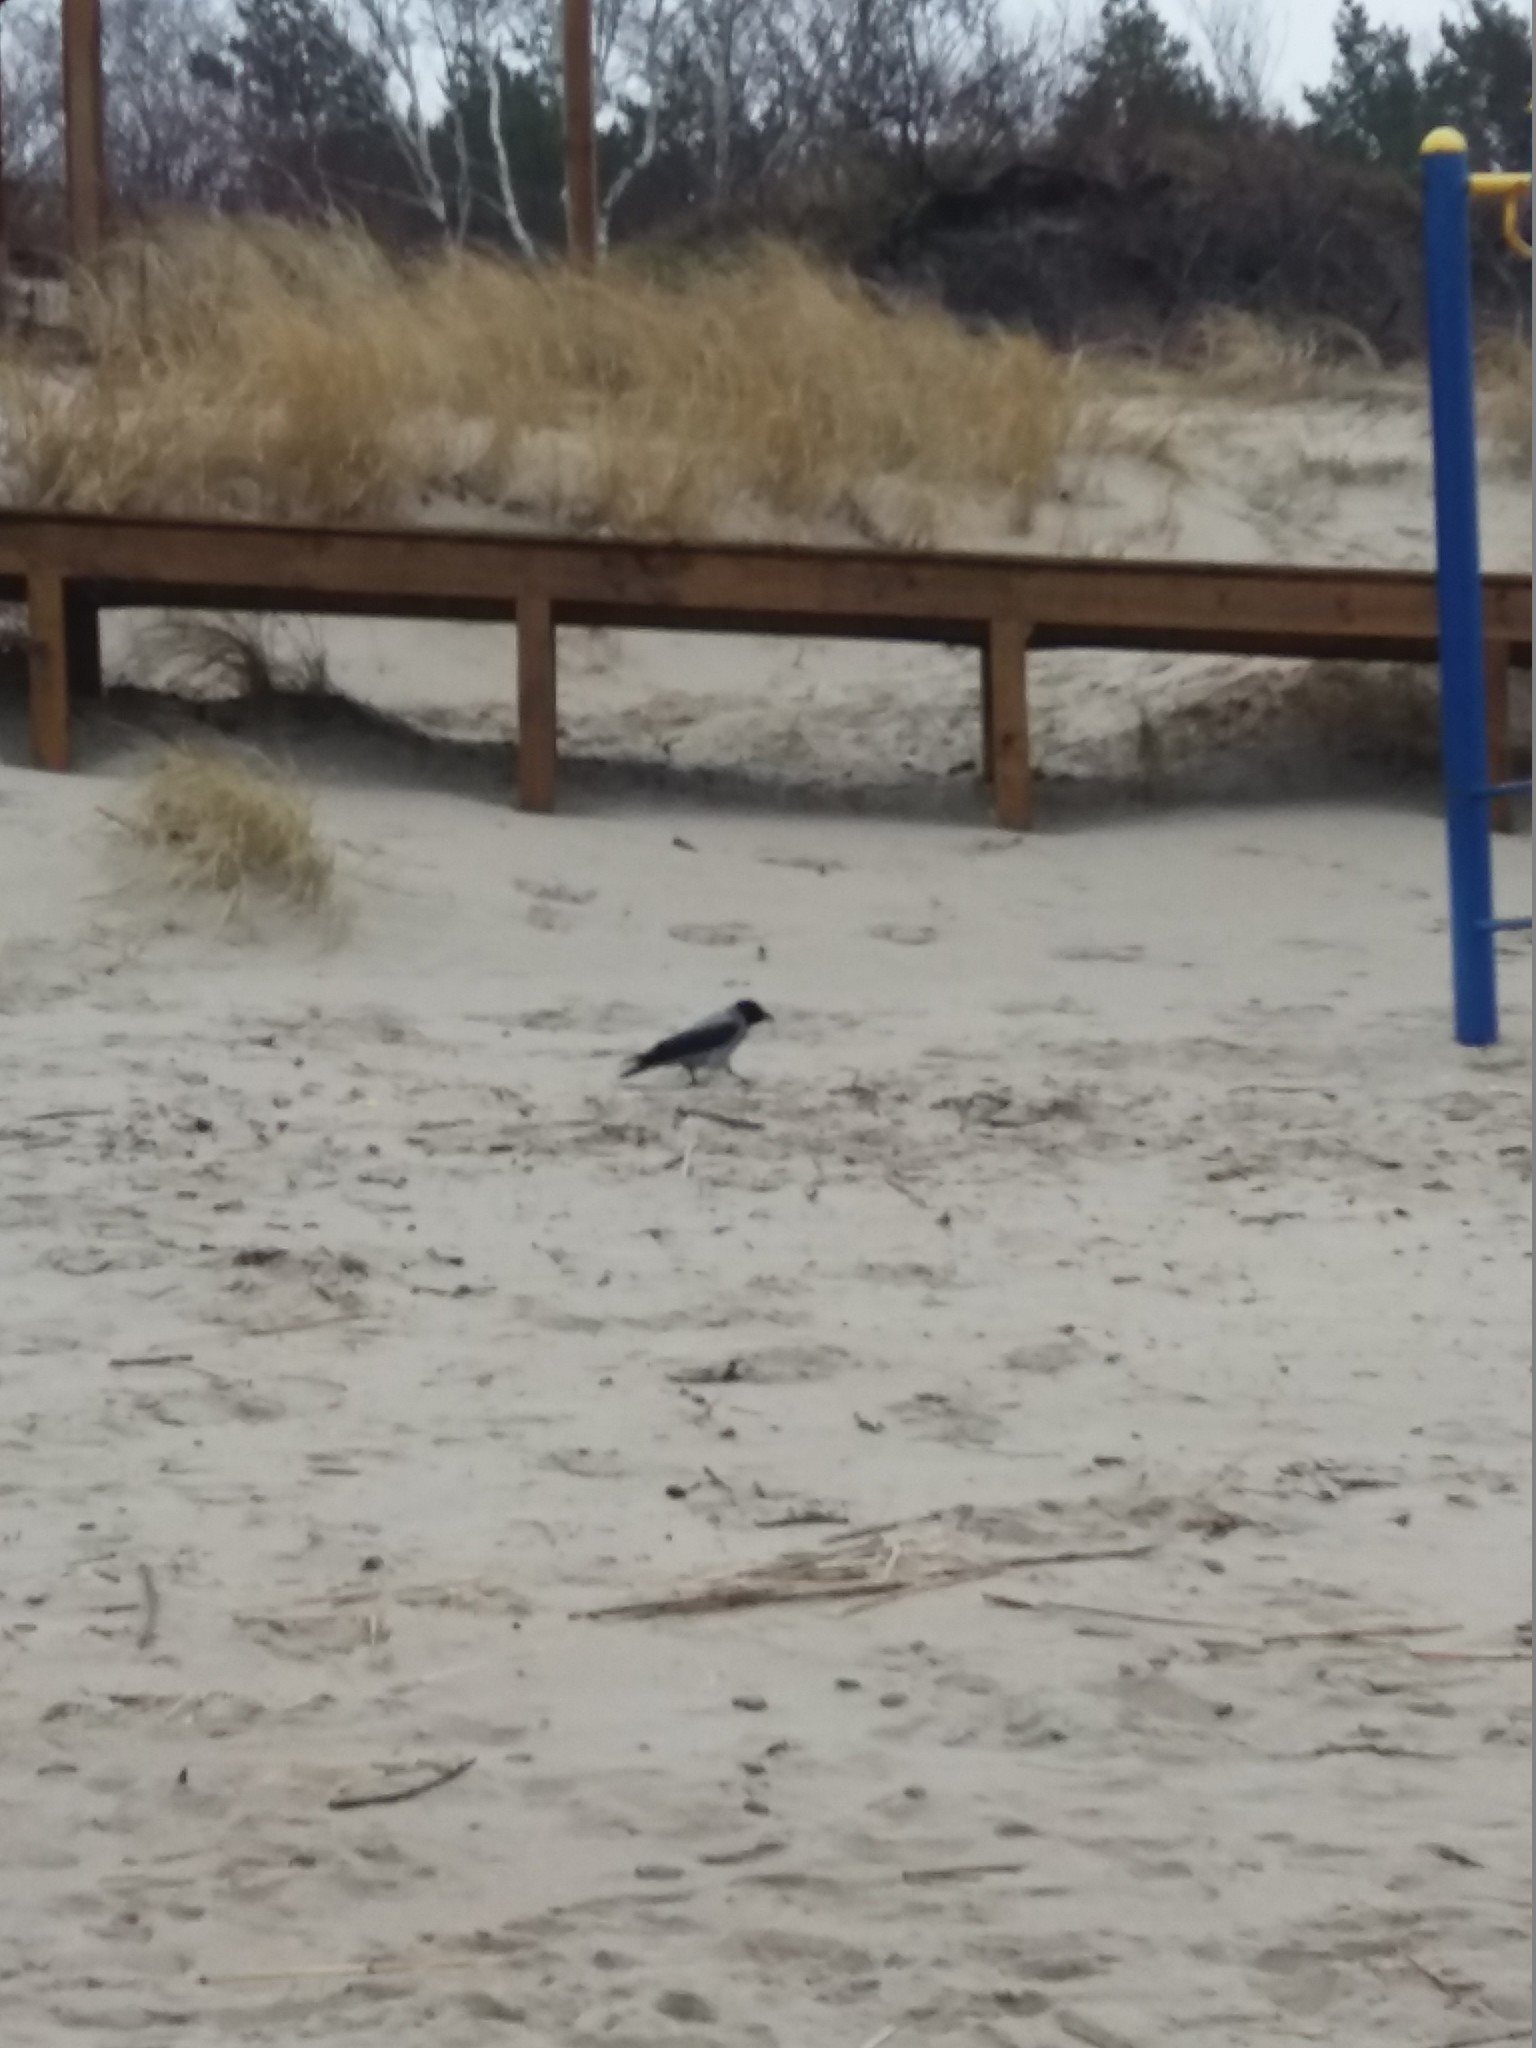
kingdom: Animalia
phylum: Chordata
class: Aves
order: Passeriformes
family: Corvidae
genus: Corvus
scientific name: Corvus cornix
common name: Hooded crow
